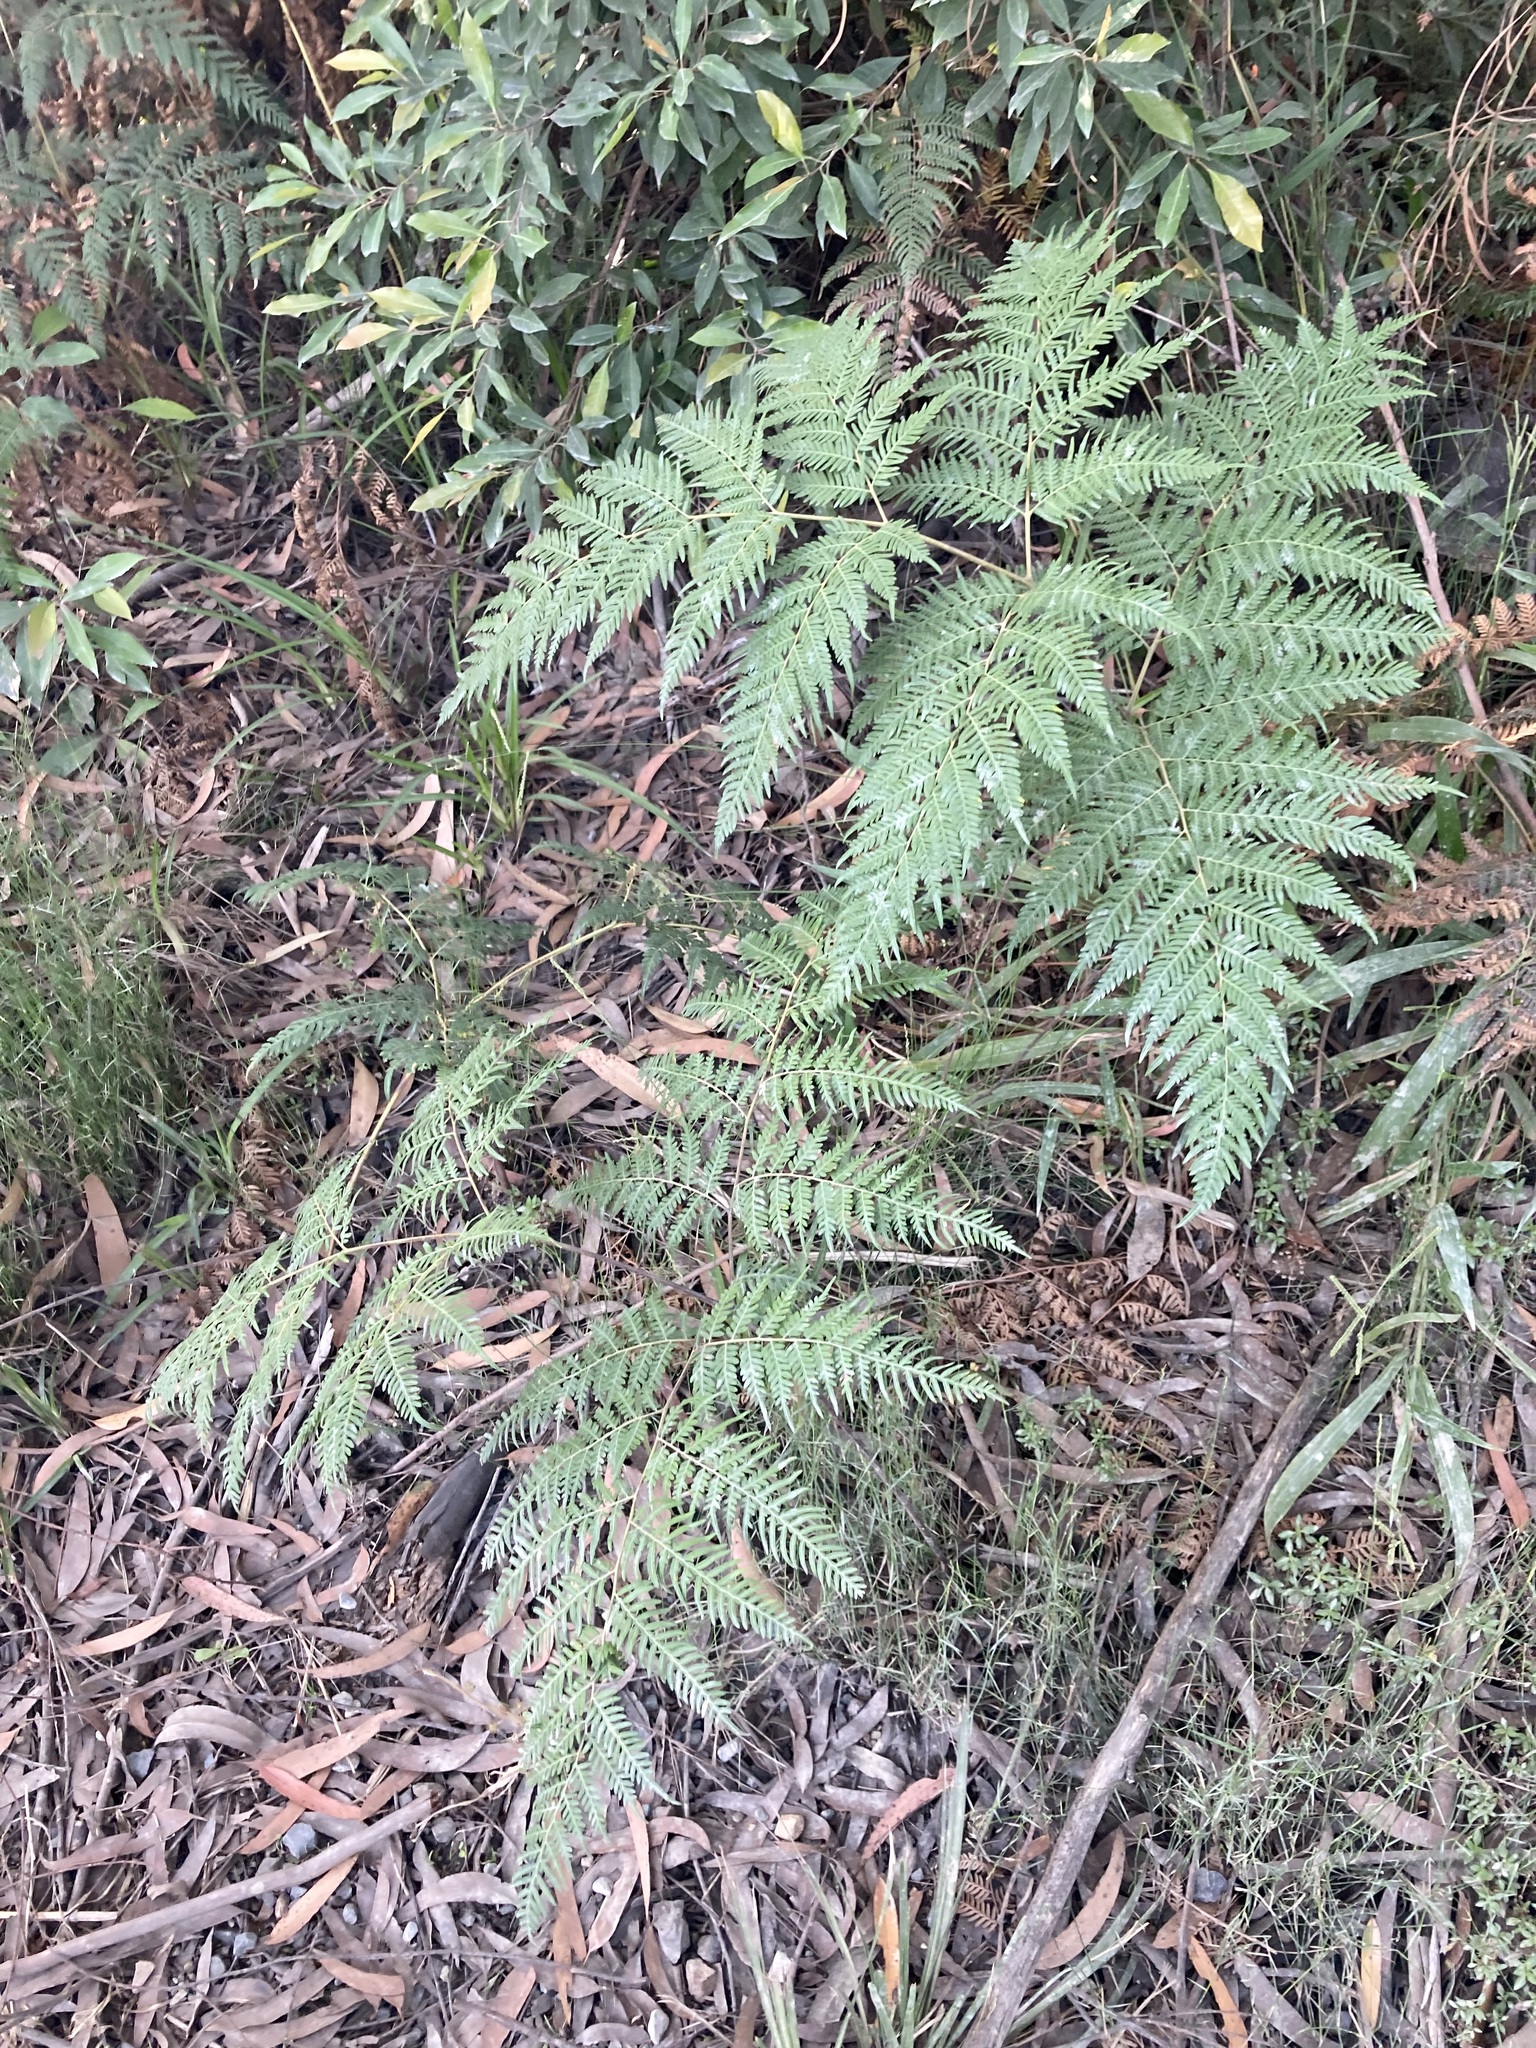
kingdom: Plantae
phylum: Tracheophyta
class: Polypodiopsida
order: Polypodiales
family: Dennstaedtiaceae
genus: Pteridium
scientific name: Pteridium esculentum
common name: Bracken fern
